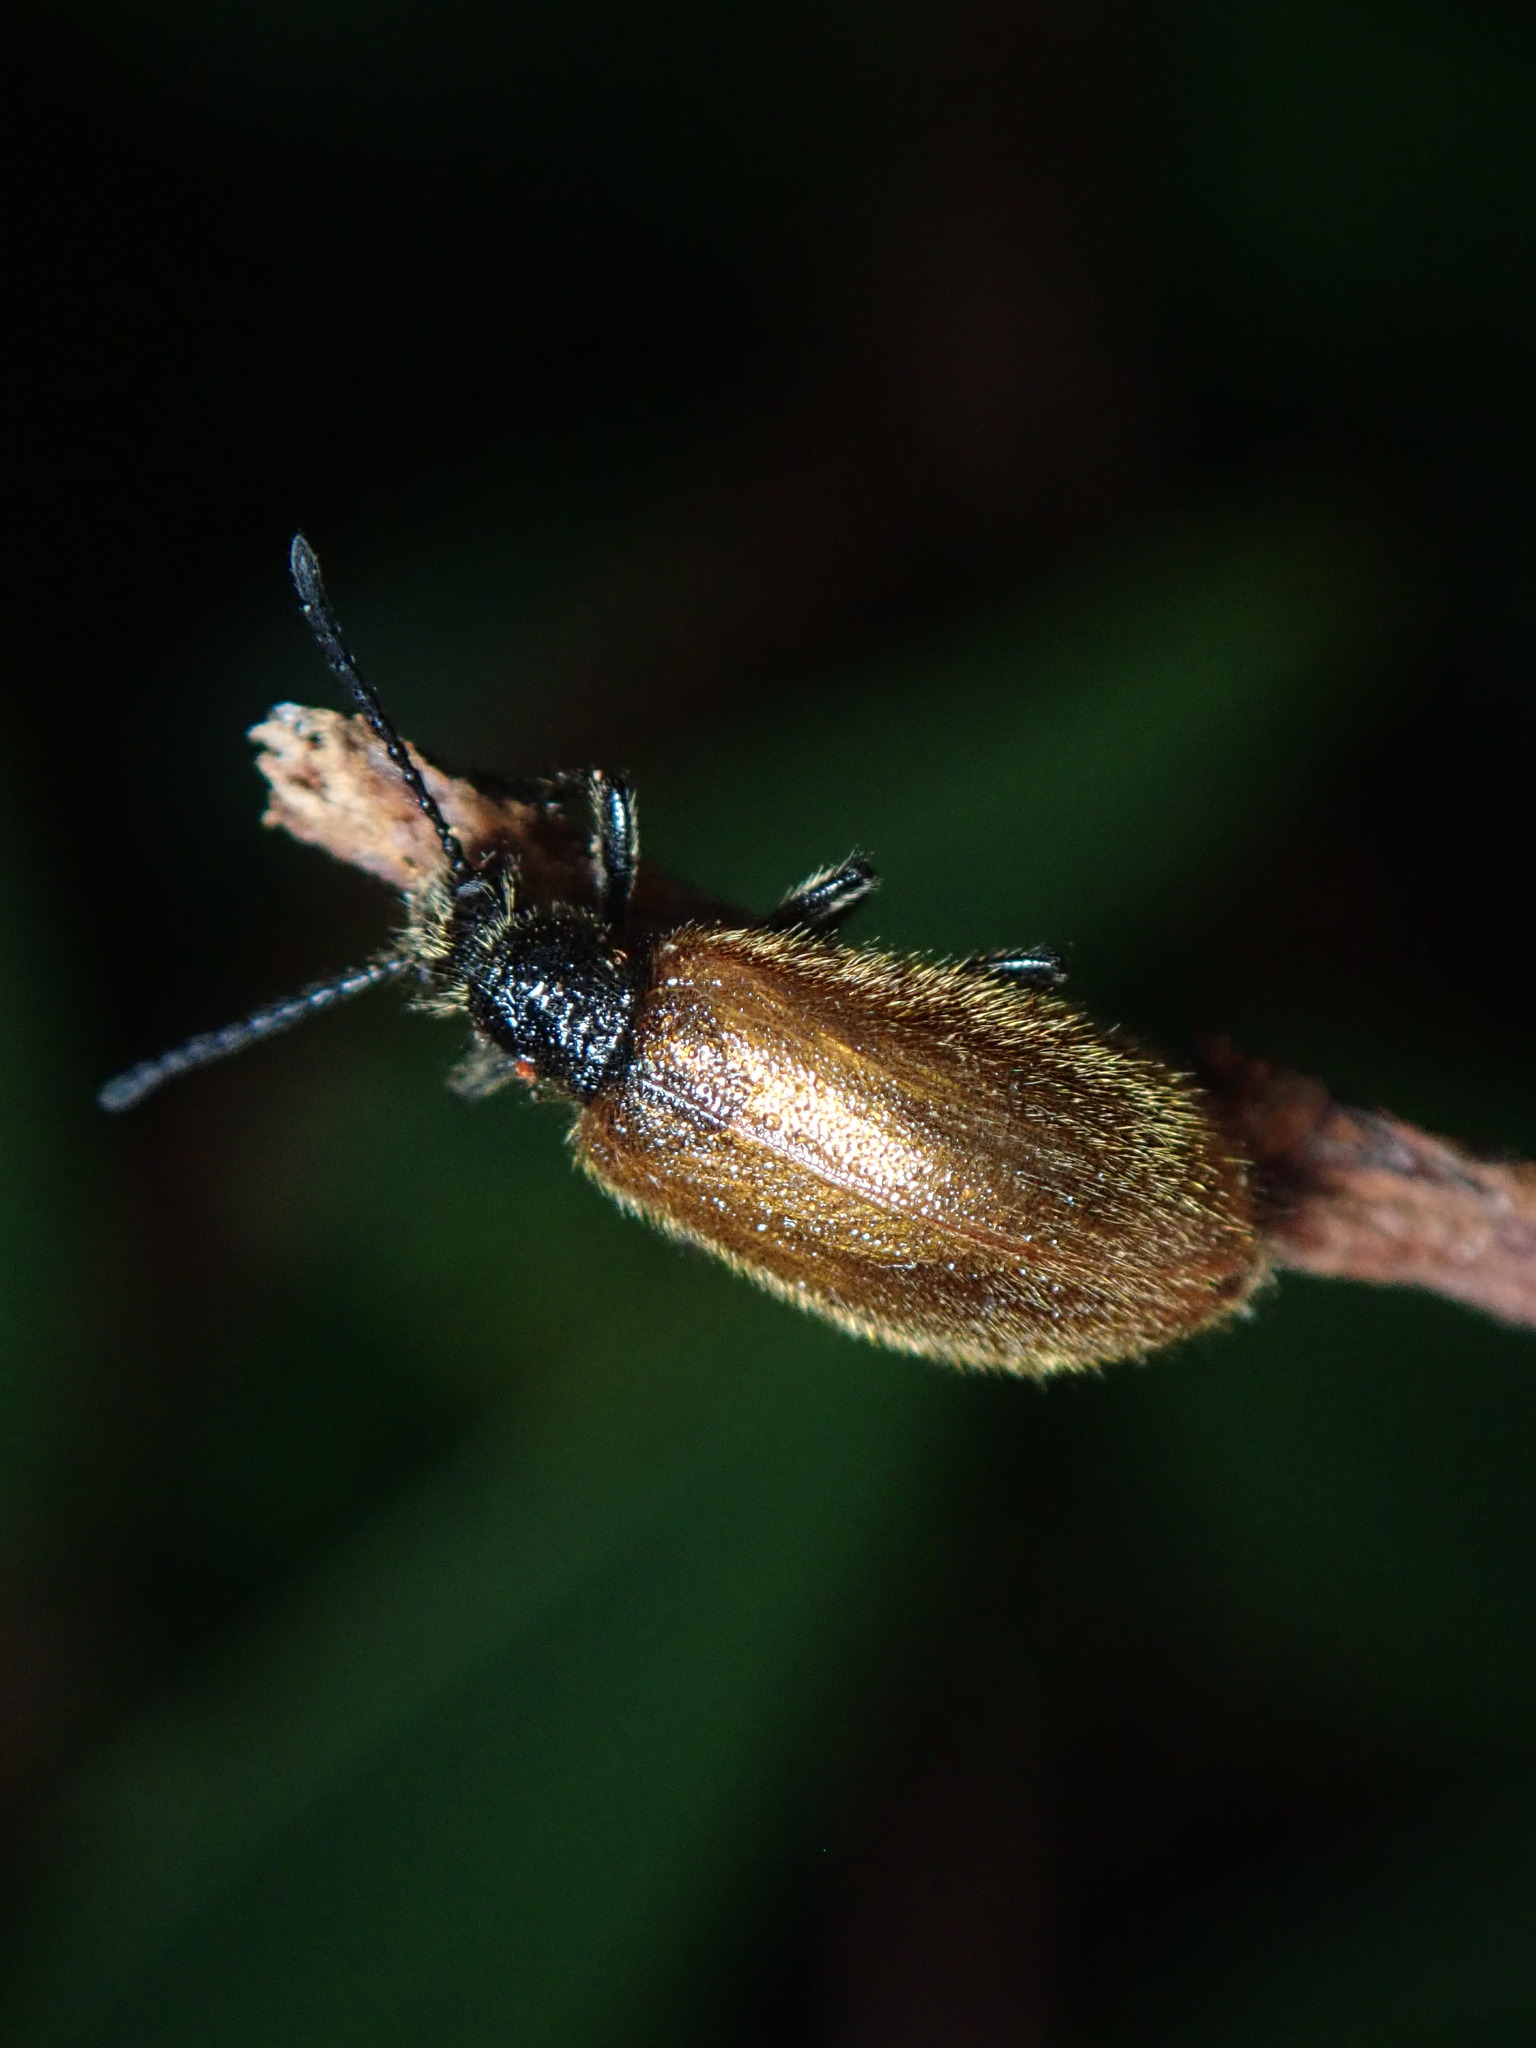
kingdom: Animalia
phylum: Arthropoda
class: Insecta
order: Coleoptera
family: Tenebrionidae
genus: Lagria
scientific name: Lagria hirta
